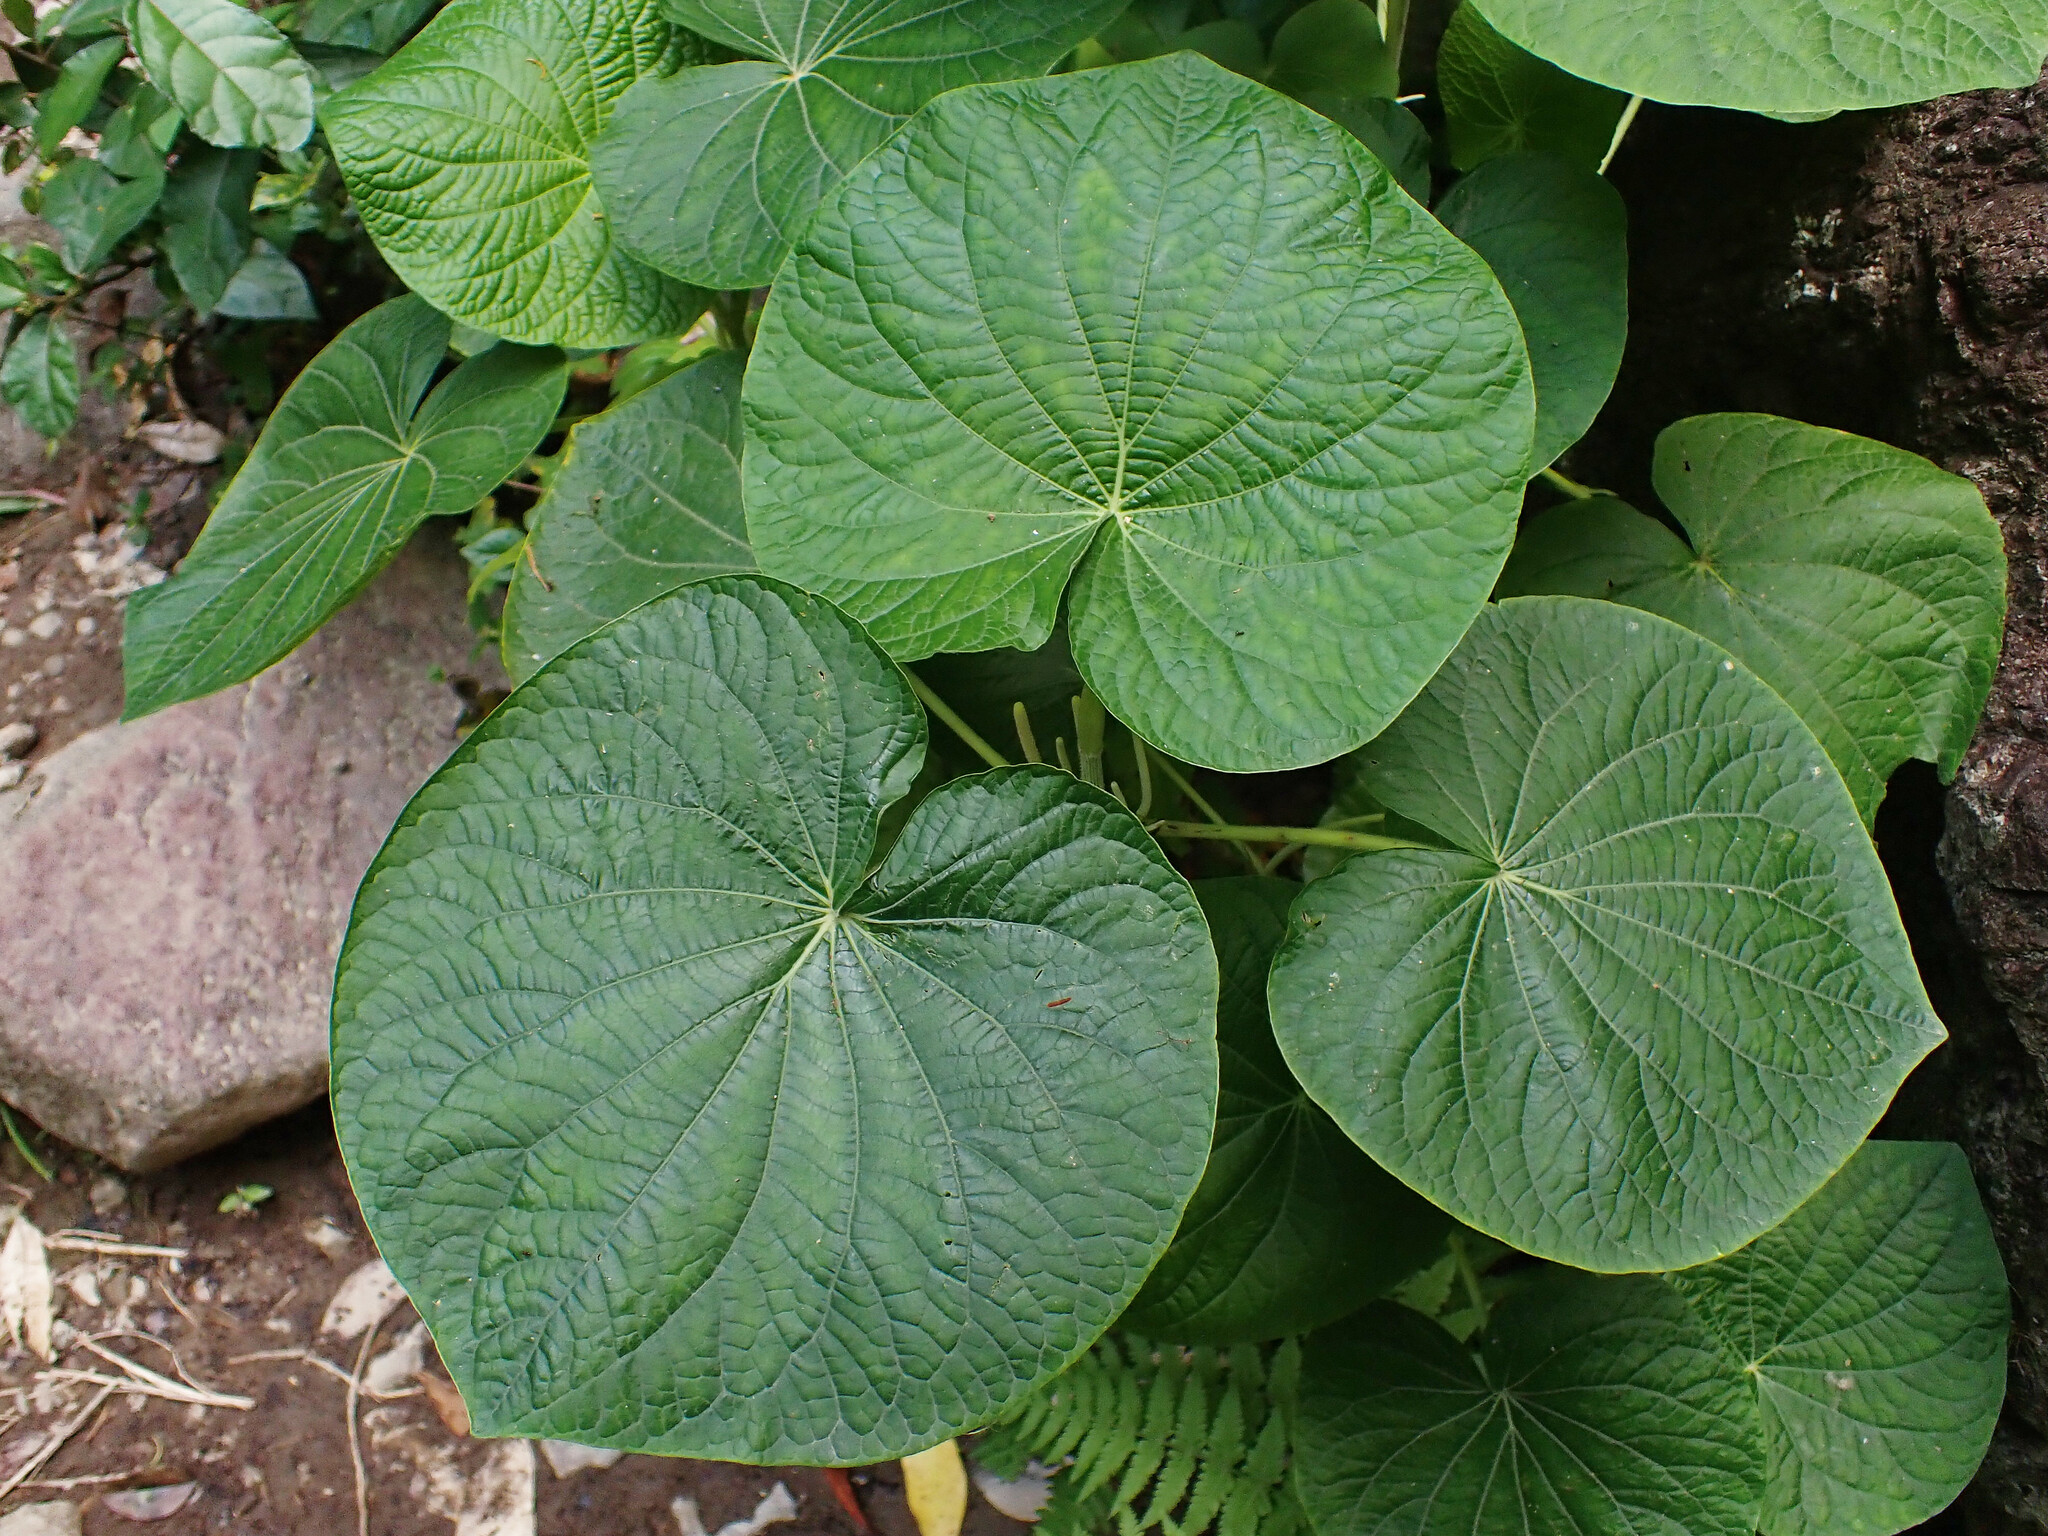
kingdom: Plantae
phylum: Tracheophyta
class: Magnoliopsida
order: Piperales
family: Piperaceae
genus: Piper
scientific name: Piper peltatum
